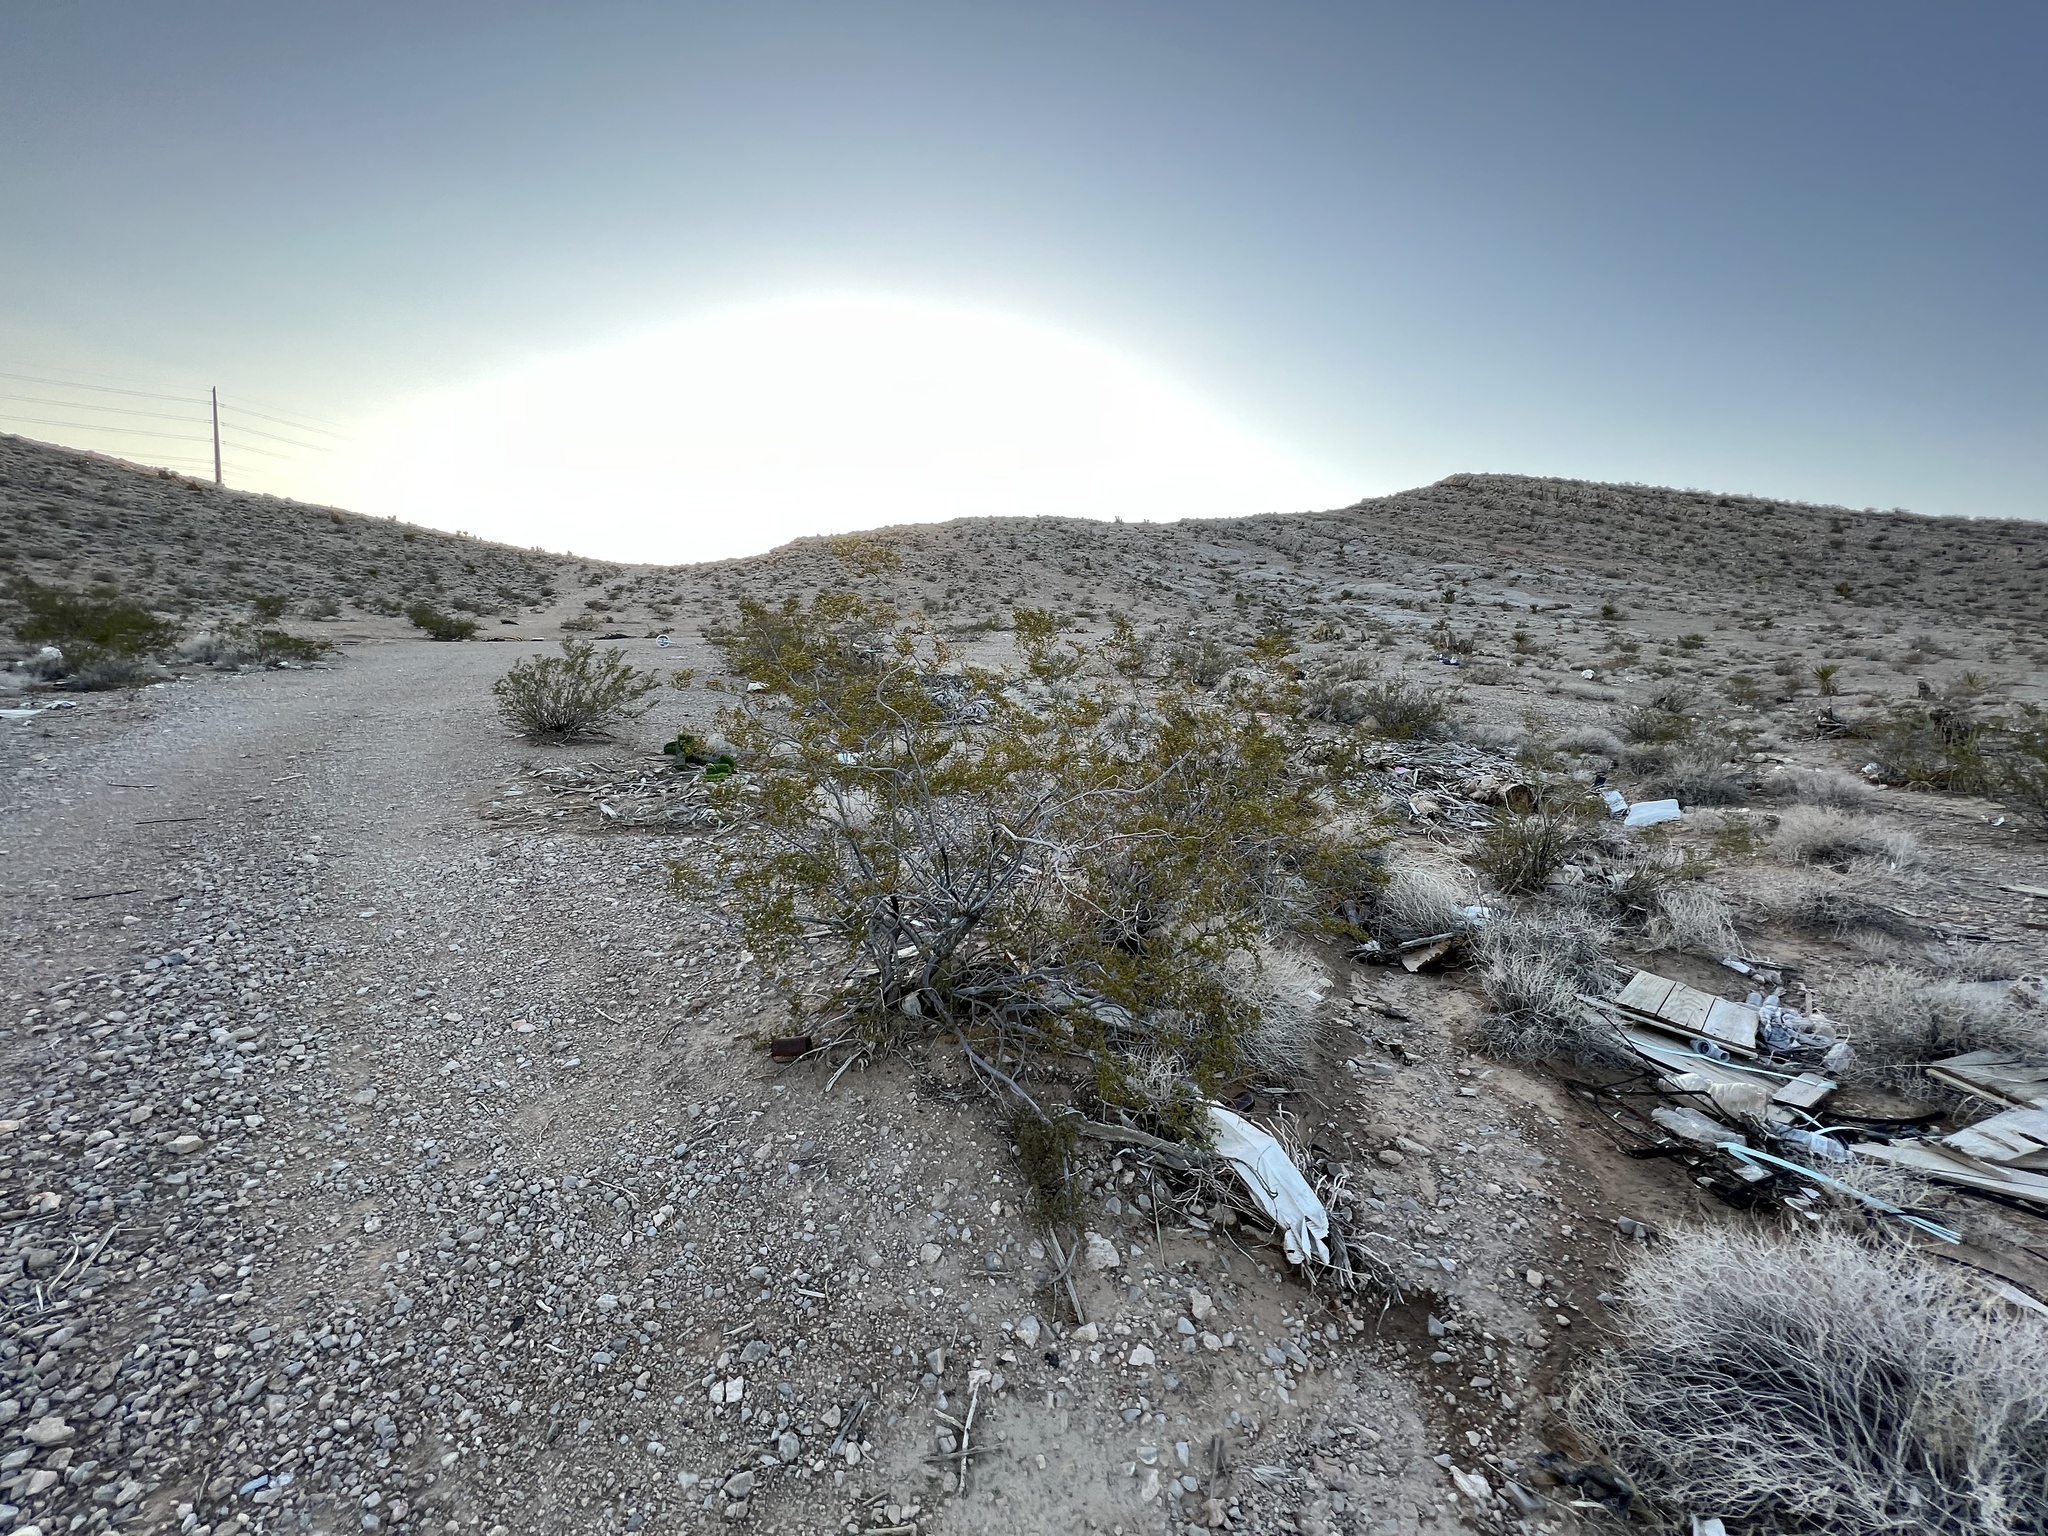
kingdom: Plantae
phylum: Tracheophyta
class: Magnoliopsida
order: Zygophyllales
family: Zygophyllaceae
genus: Larrea
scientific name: Larrea tridentata
